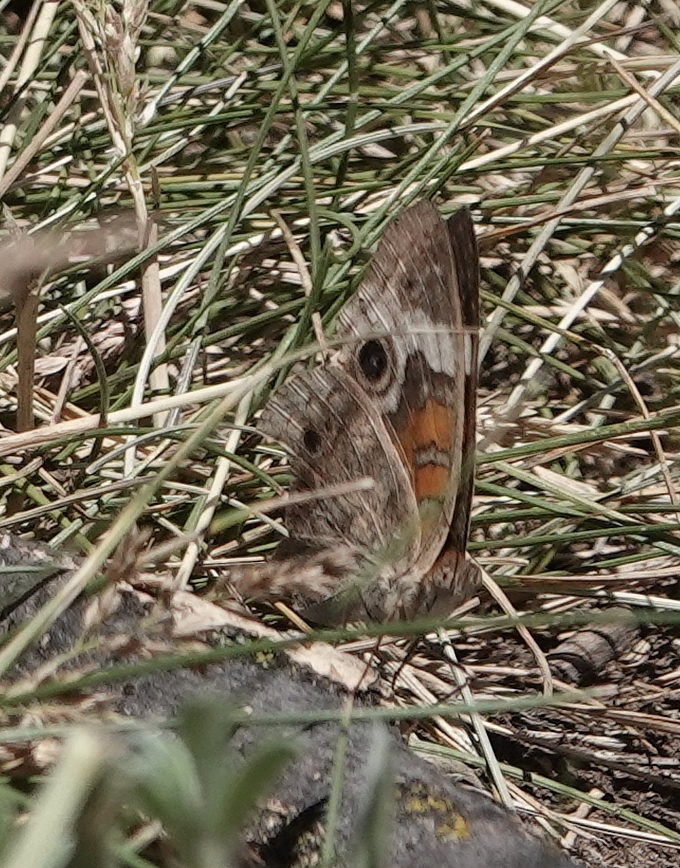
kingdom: Animalia
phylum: Arthropoda
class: Insecta
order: Lepidoptera
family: Nymphalidae
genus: Junonia
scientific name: Junonia coenia
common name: Common buckeye
